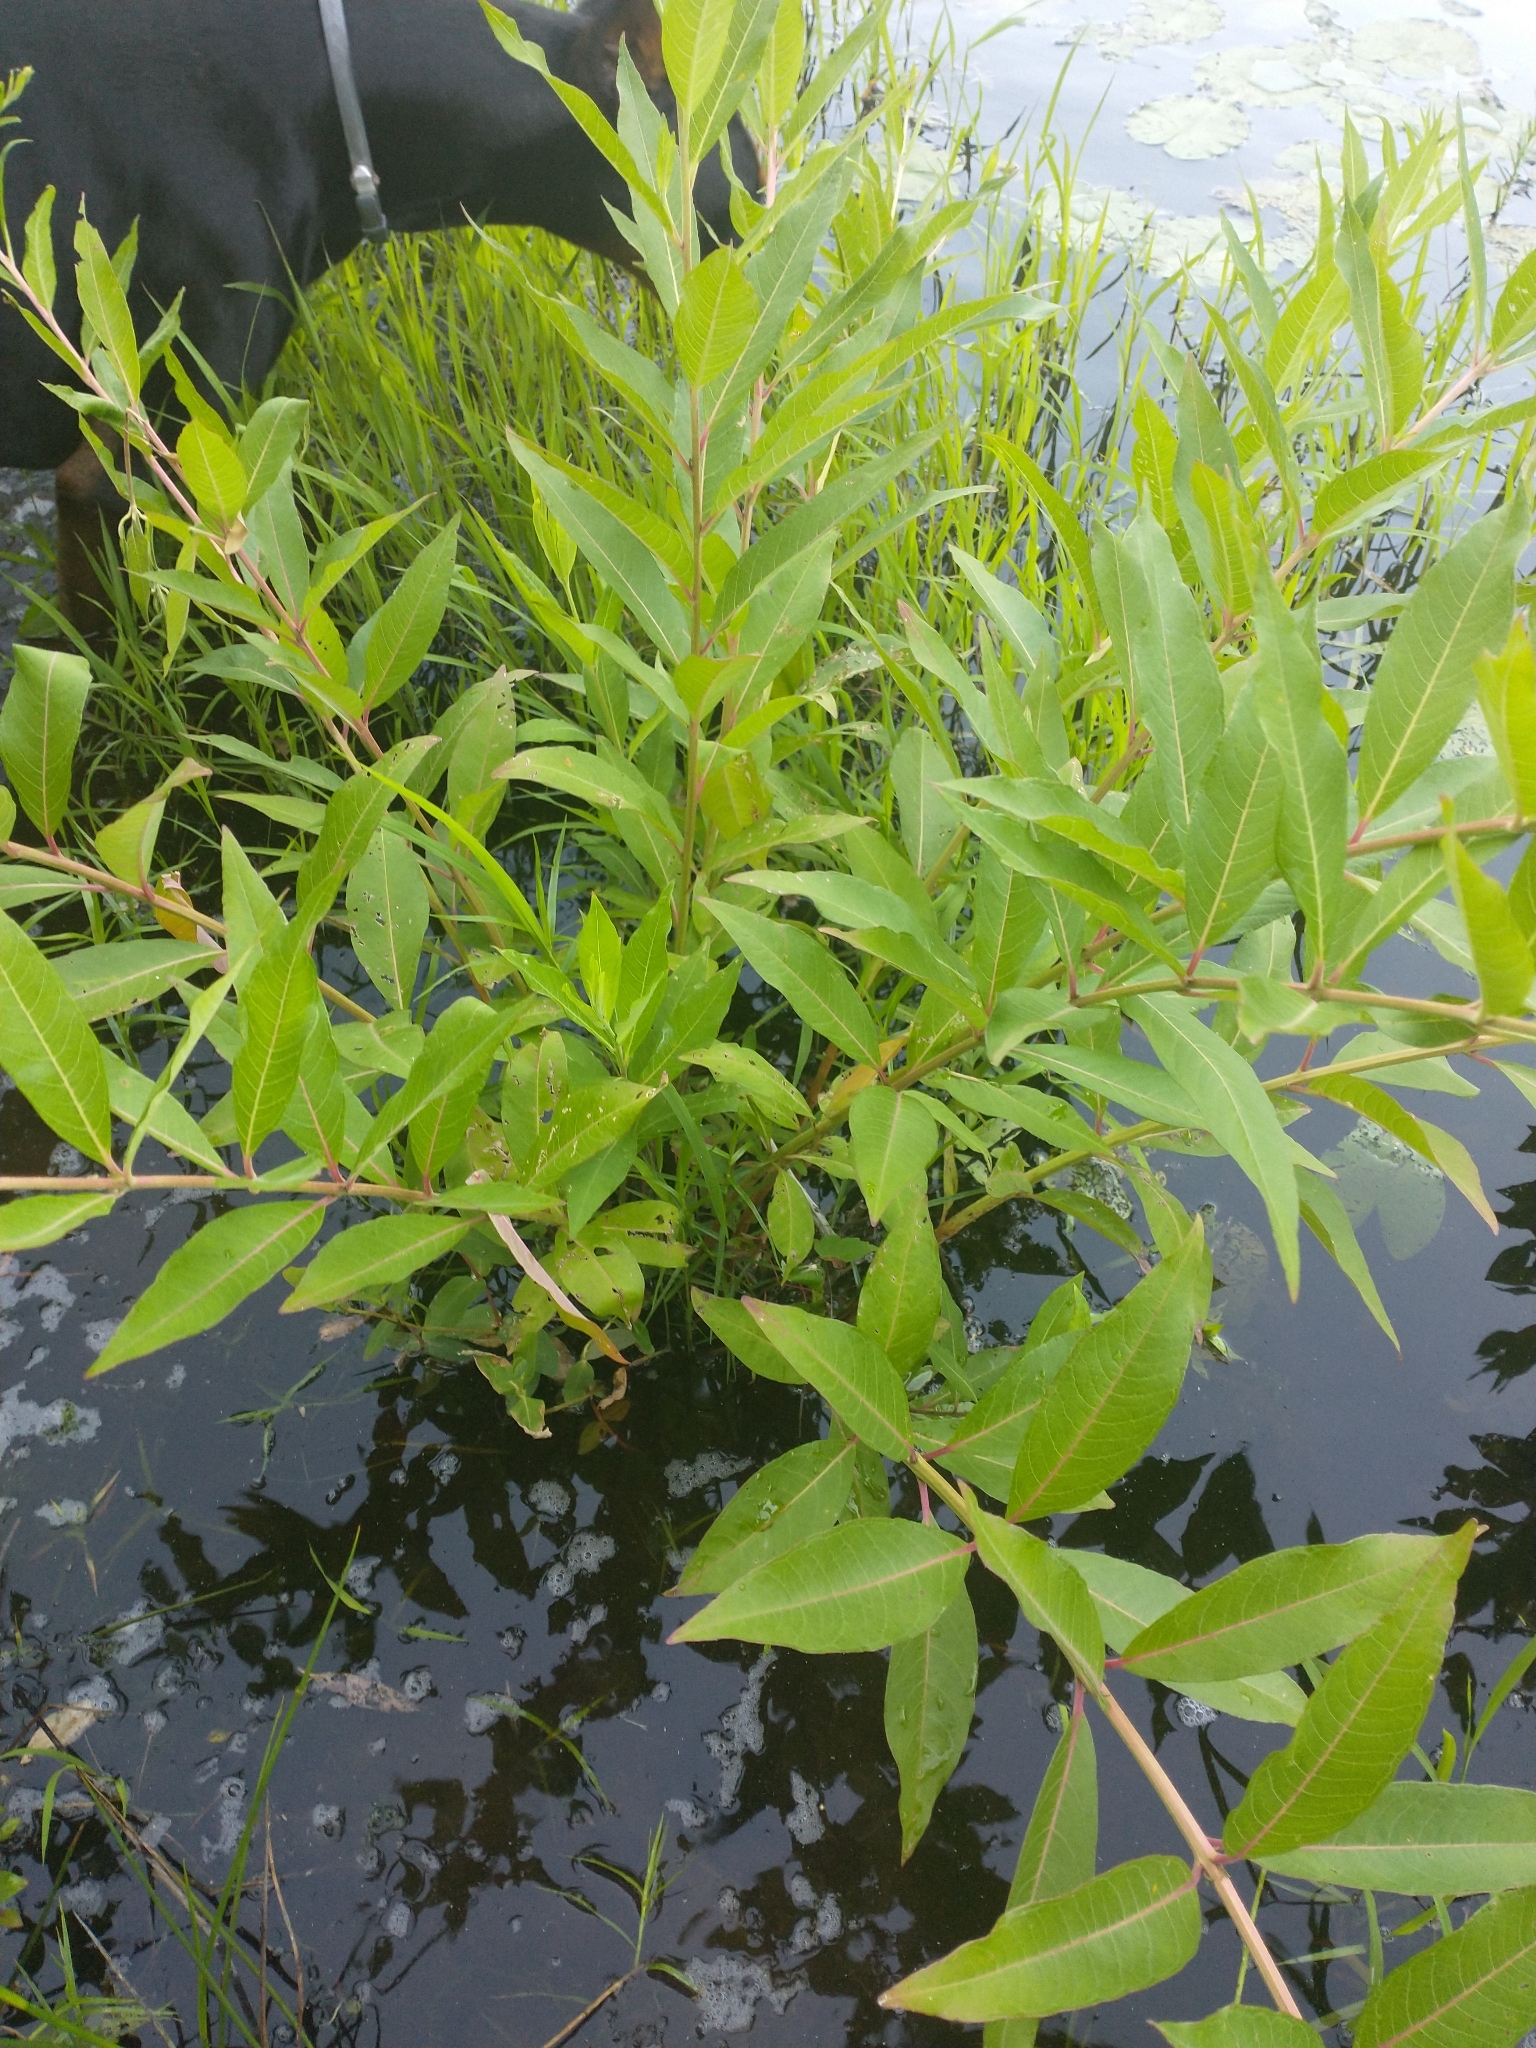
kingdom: Plantae
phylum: Tracheophyta
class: Magnoliopsida
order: Myrtales
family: Lythraceae
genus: Decodon
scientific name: Decodon verticillatus
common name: Hairy swamp loosestrife
